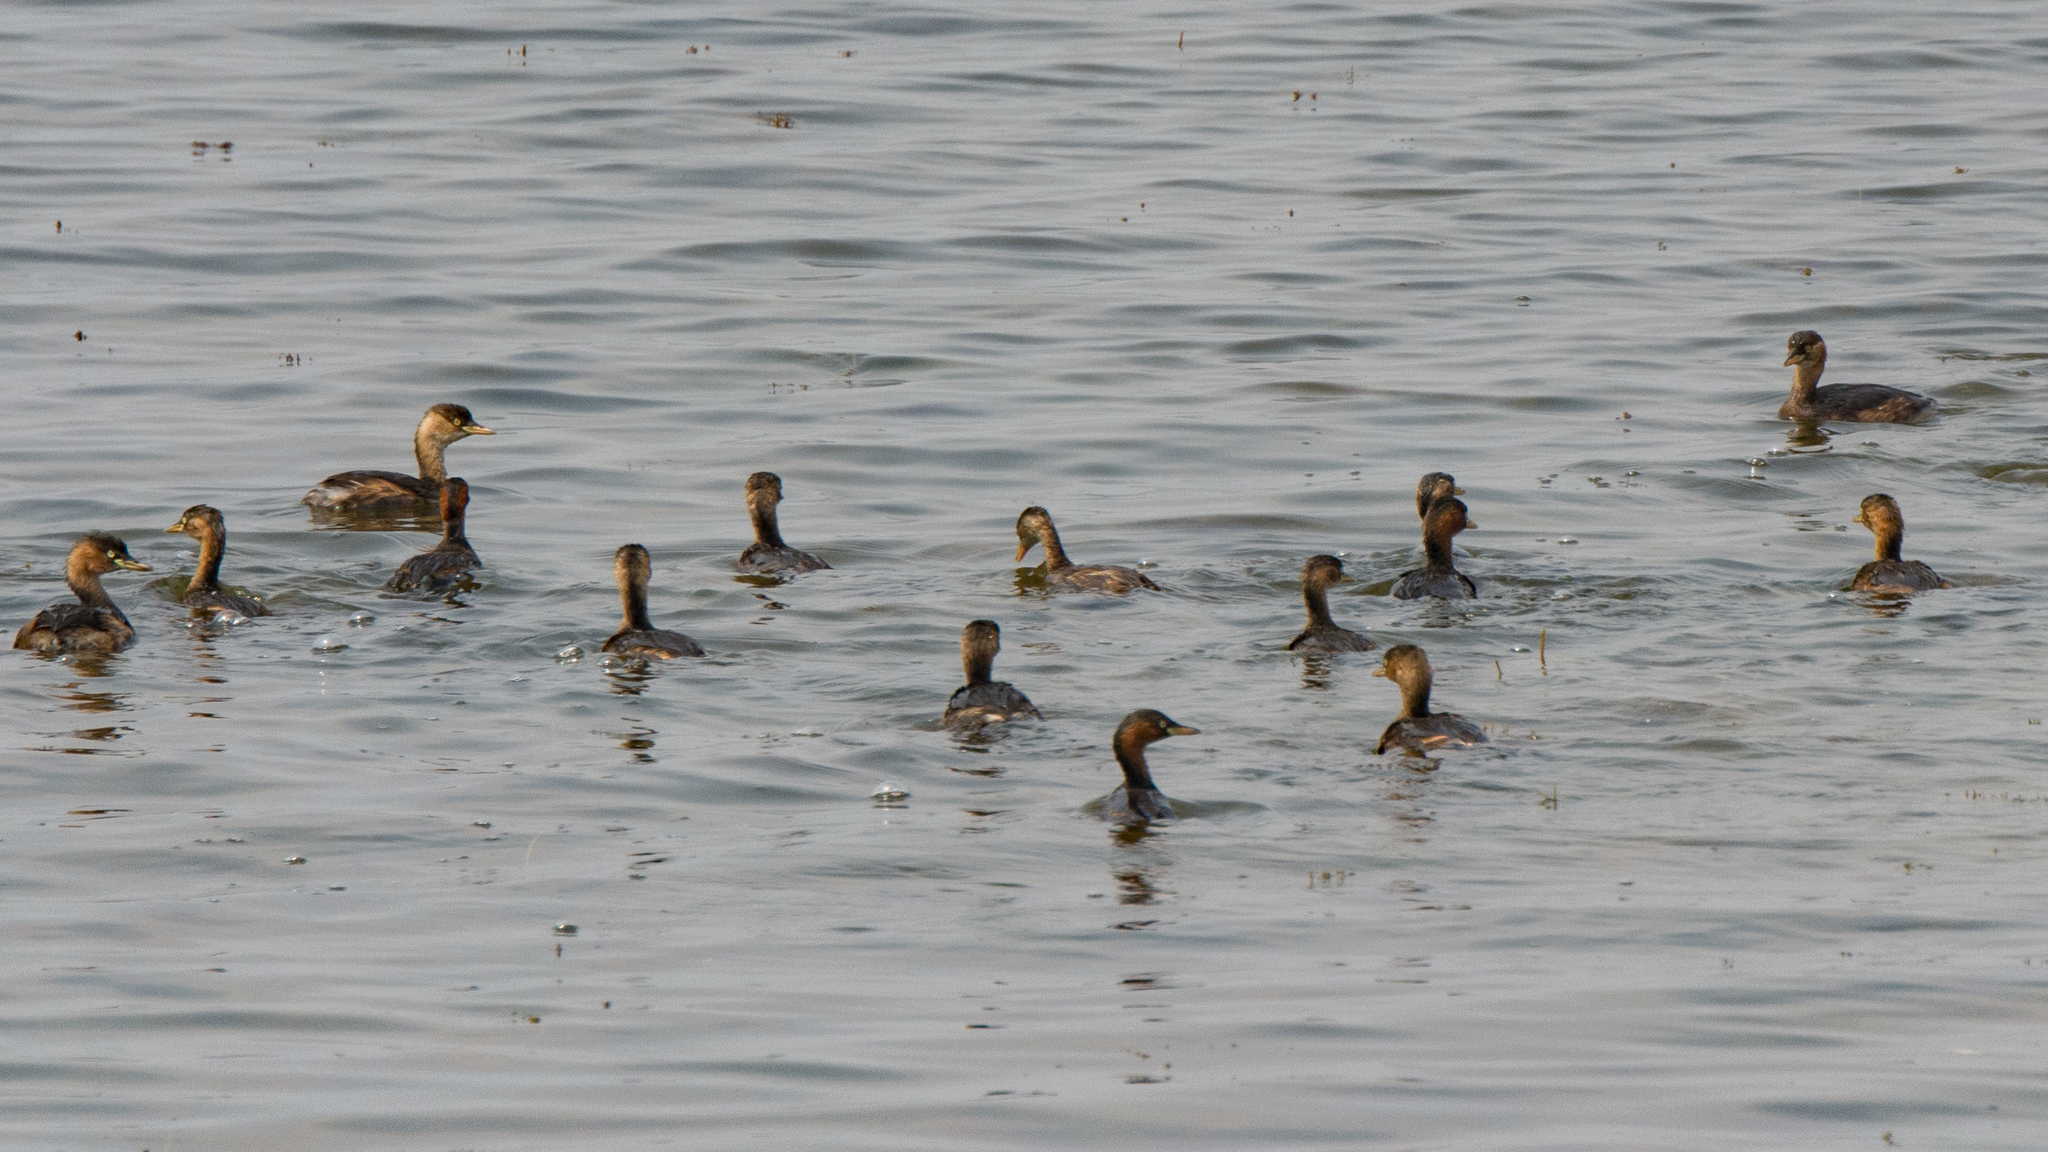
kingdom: Animalia
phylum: Chordata
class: Aves
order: Podicipediformes
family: Podicipedidae
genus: Tachybaptus
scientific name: Tachybaptus ruficollis
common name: Little grebe
